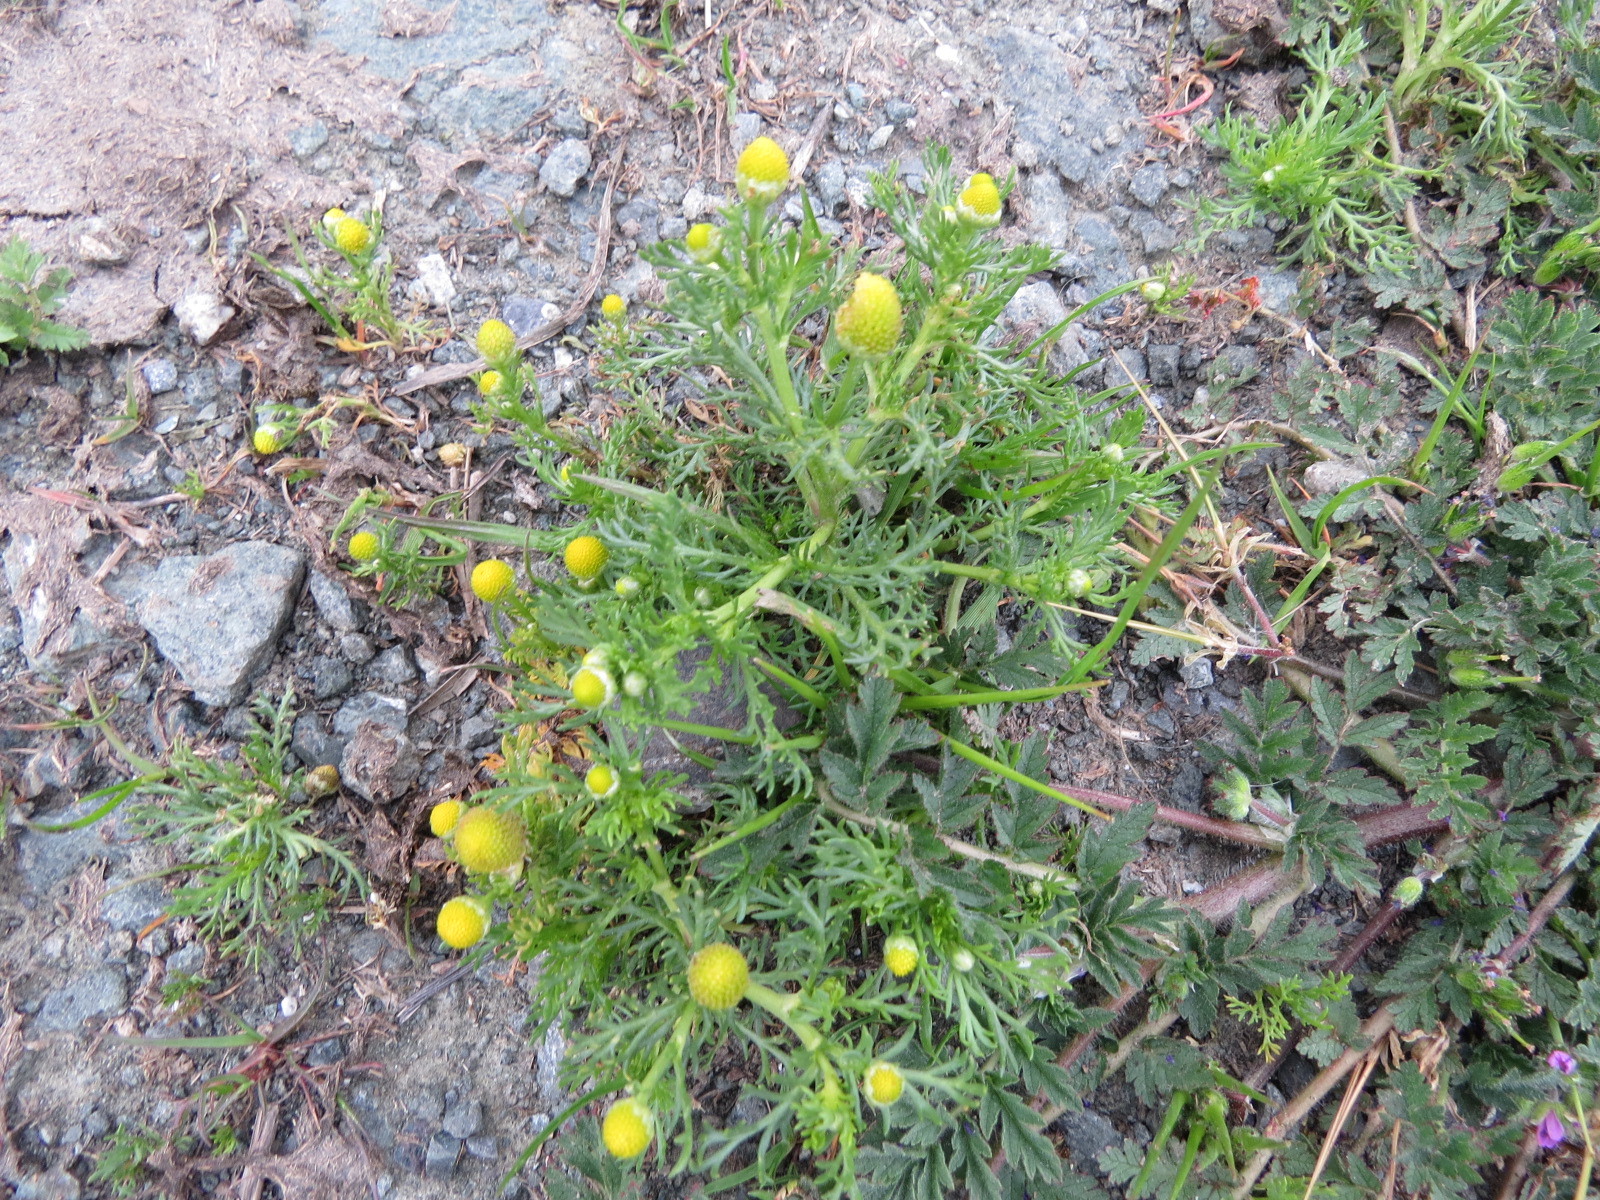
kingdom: Plantae
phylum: Tracheophyta
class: Magnoliopsida
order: Asterales
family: Asteraceae
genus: Matricaria
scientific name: Matricaria discoidea
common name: Disc mayweed
